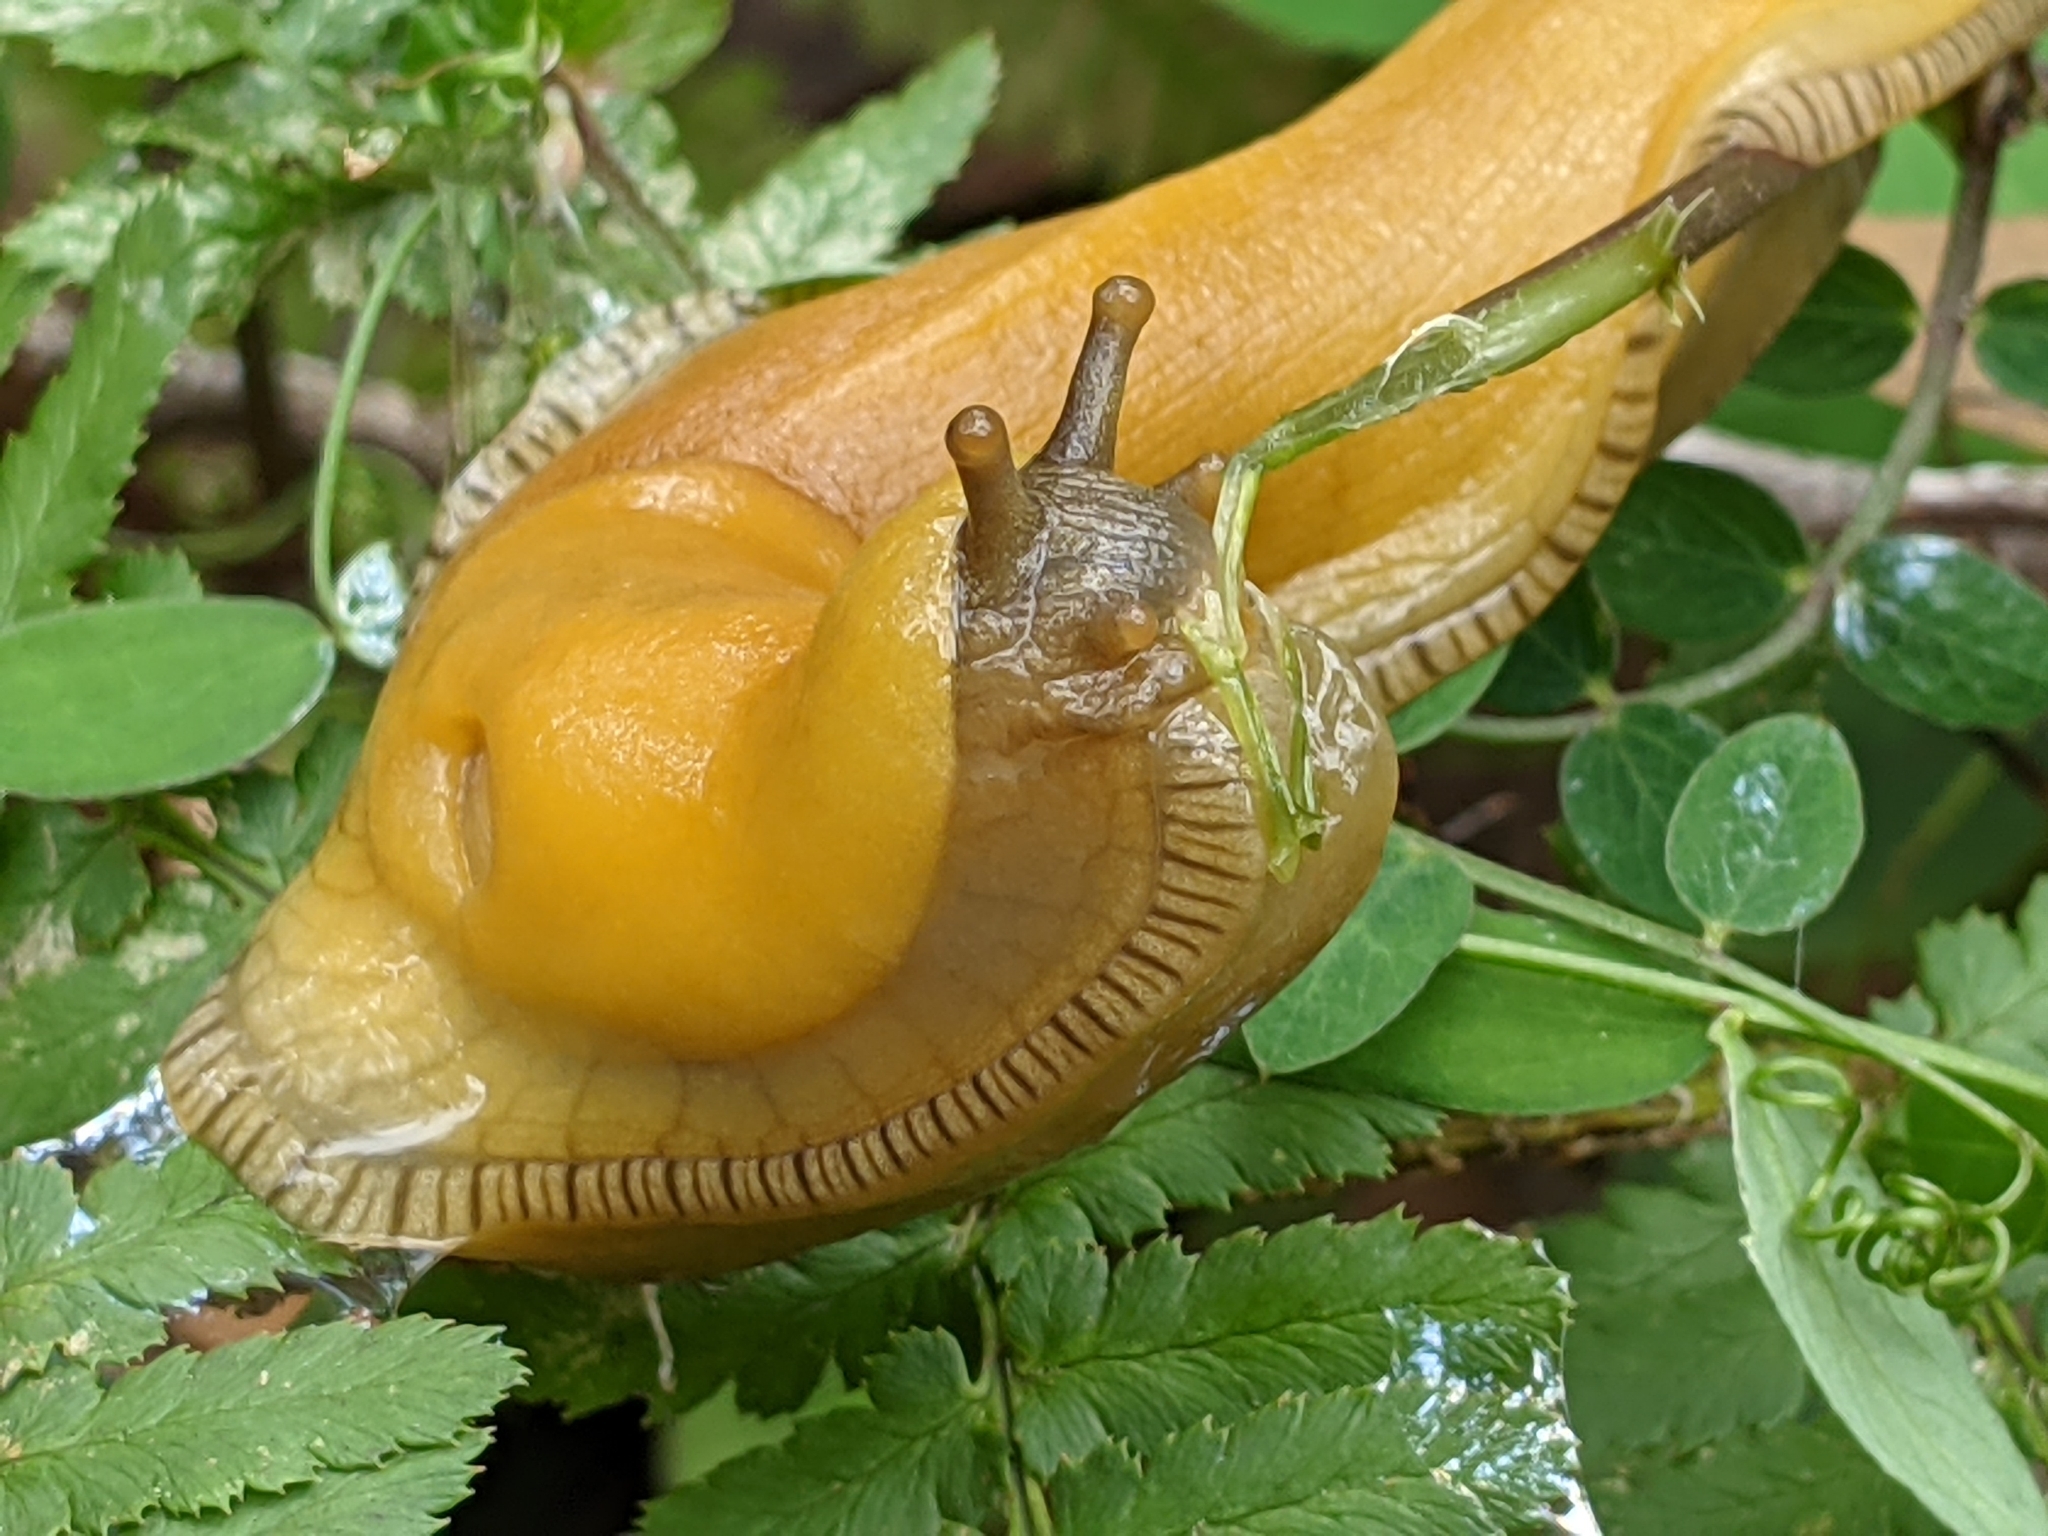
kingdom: Animalia
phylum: Mollusca
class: Gastropoda
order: Stylommatophora
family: Ariolimacidae
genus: Ariolimax
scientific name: Ariolimax buttoni
